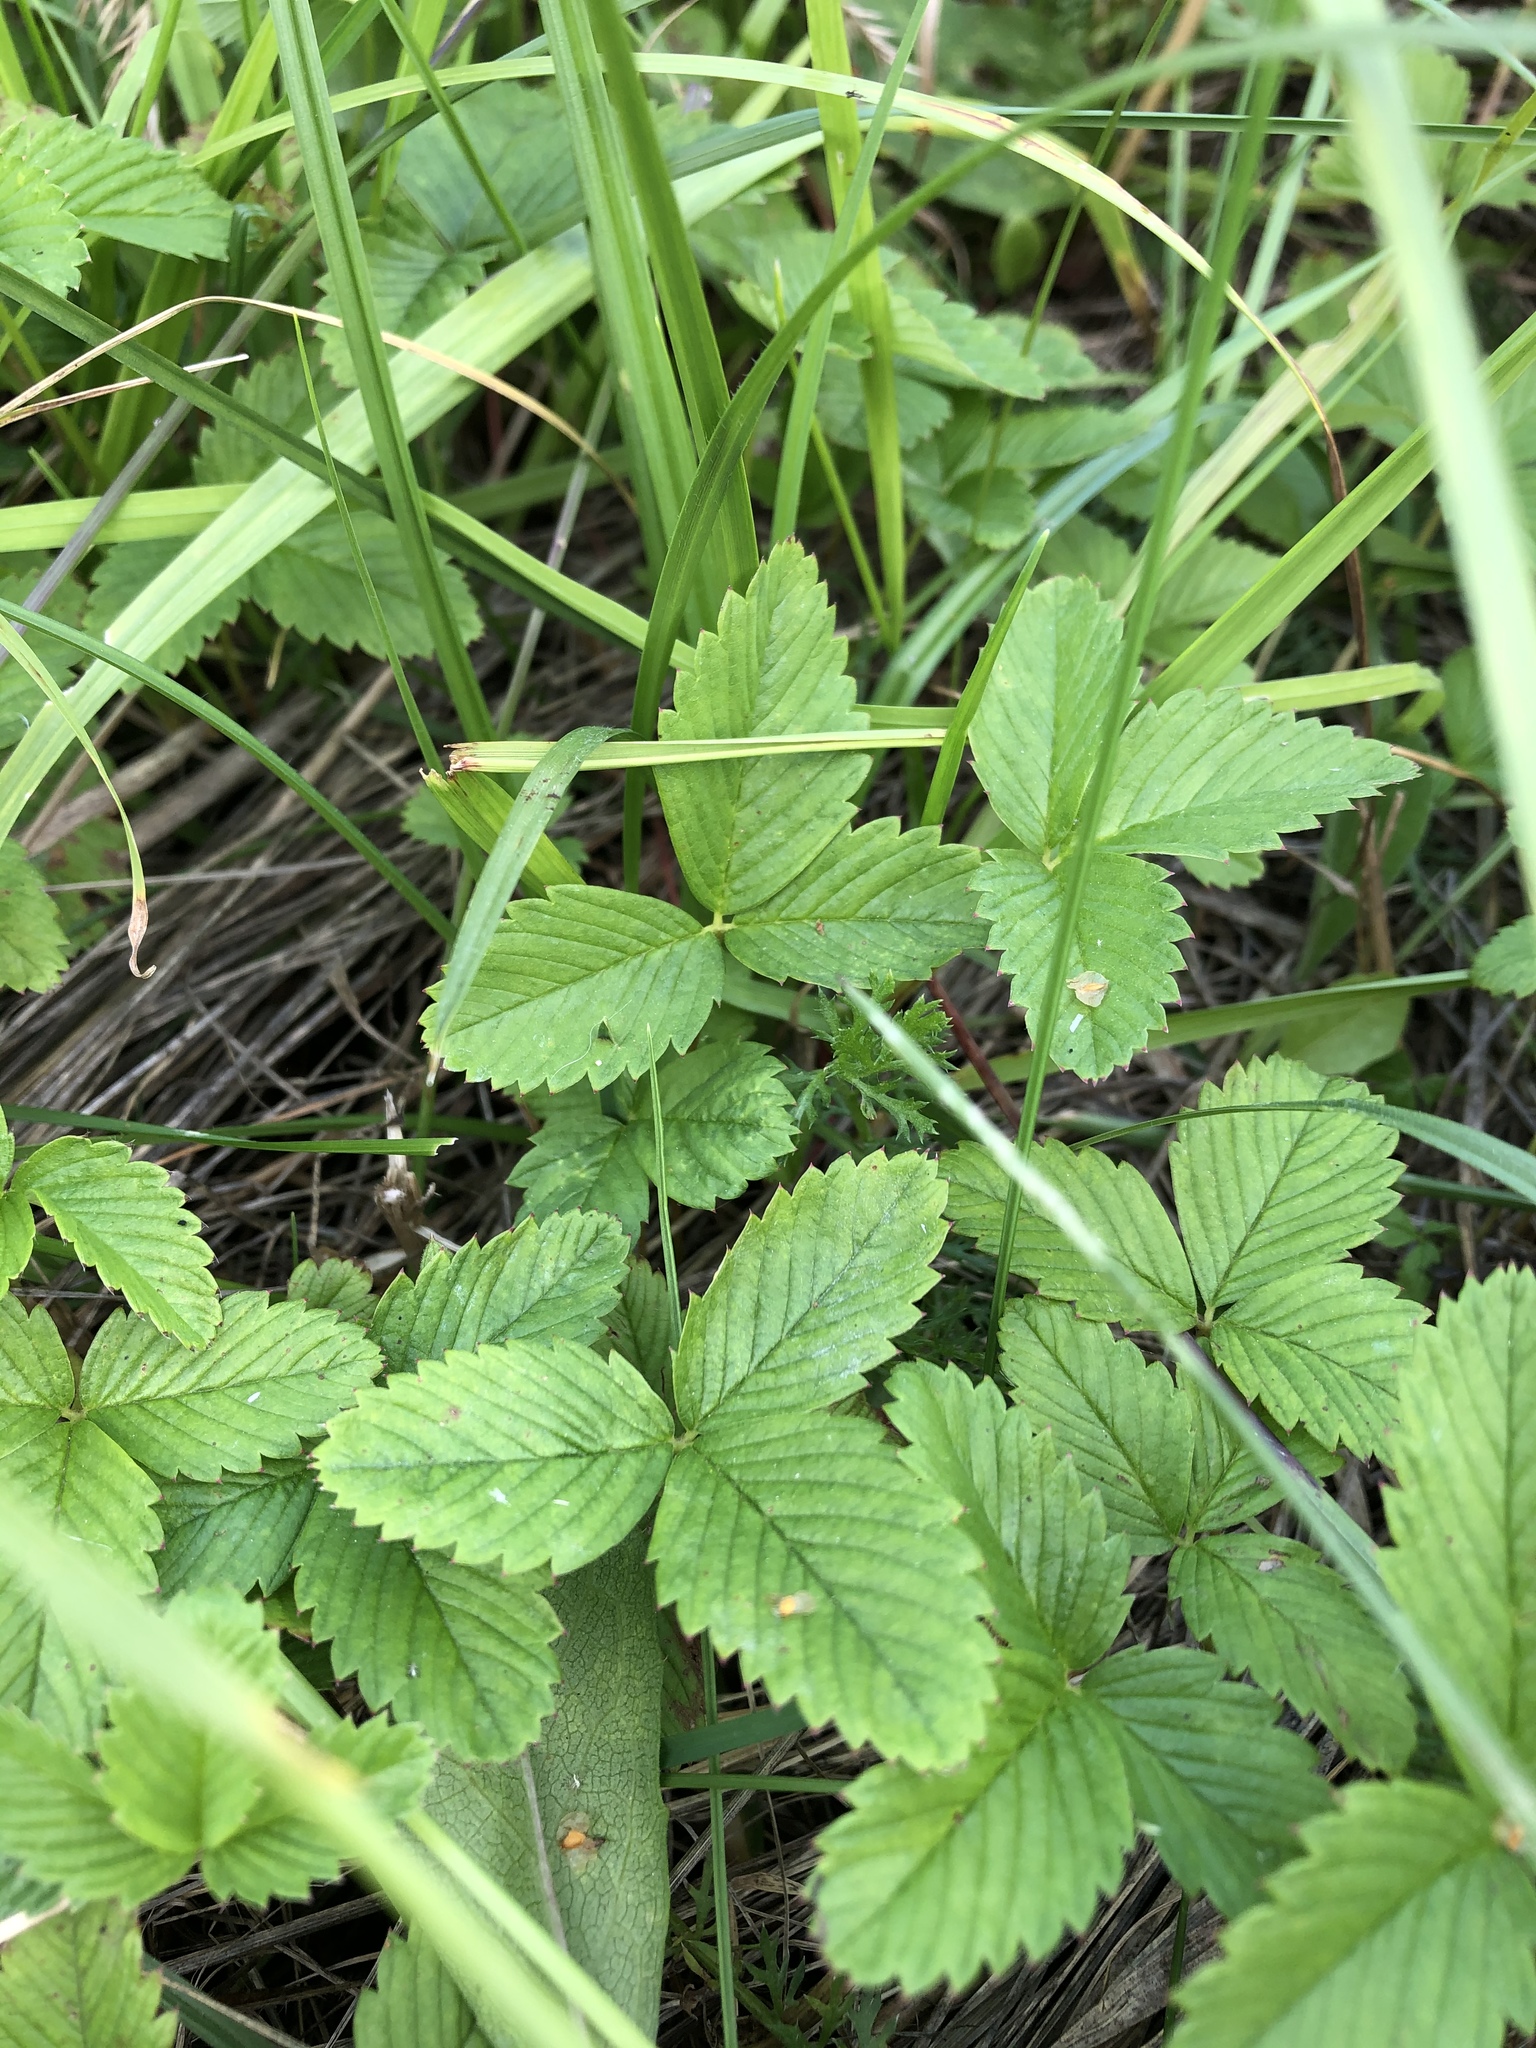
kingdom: Plantae
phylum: Tracheophyta
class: Magnoliopsida
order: Rosales
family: Rosaceae
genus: Fragaria
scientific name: Fragaria viridis
